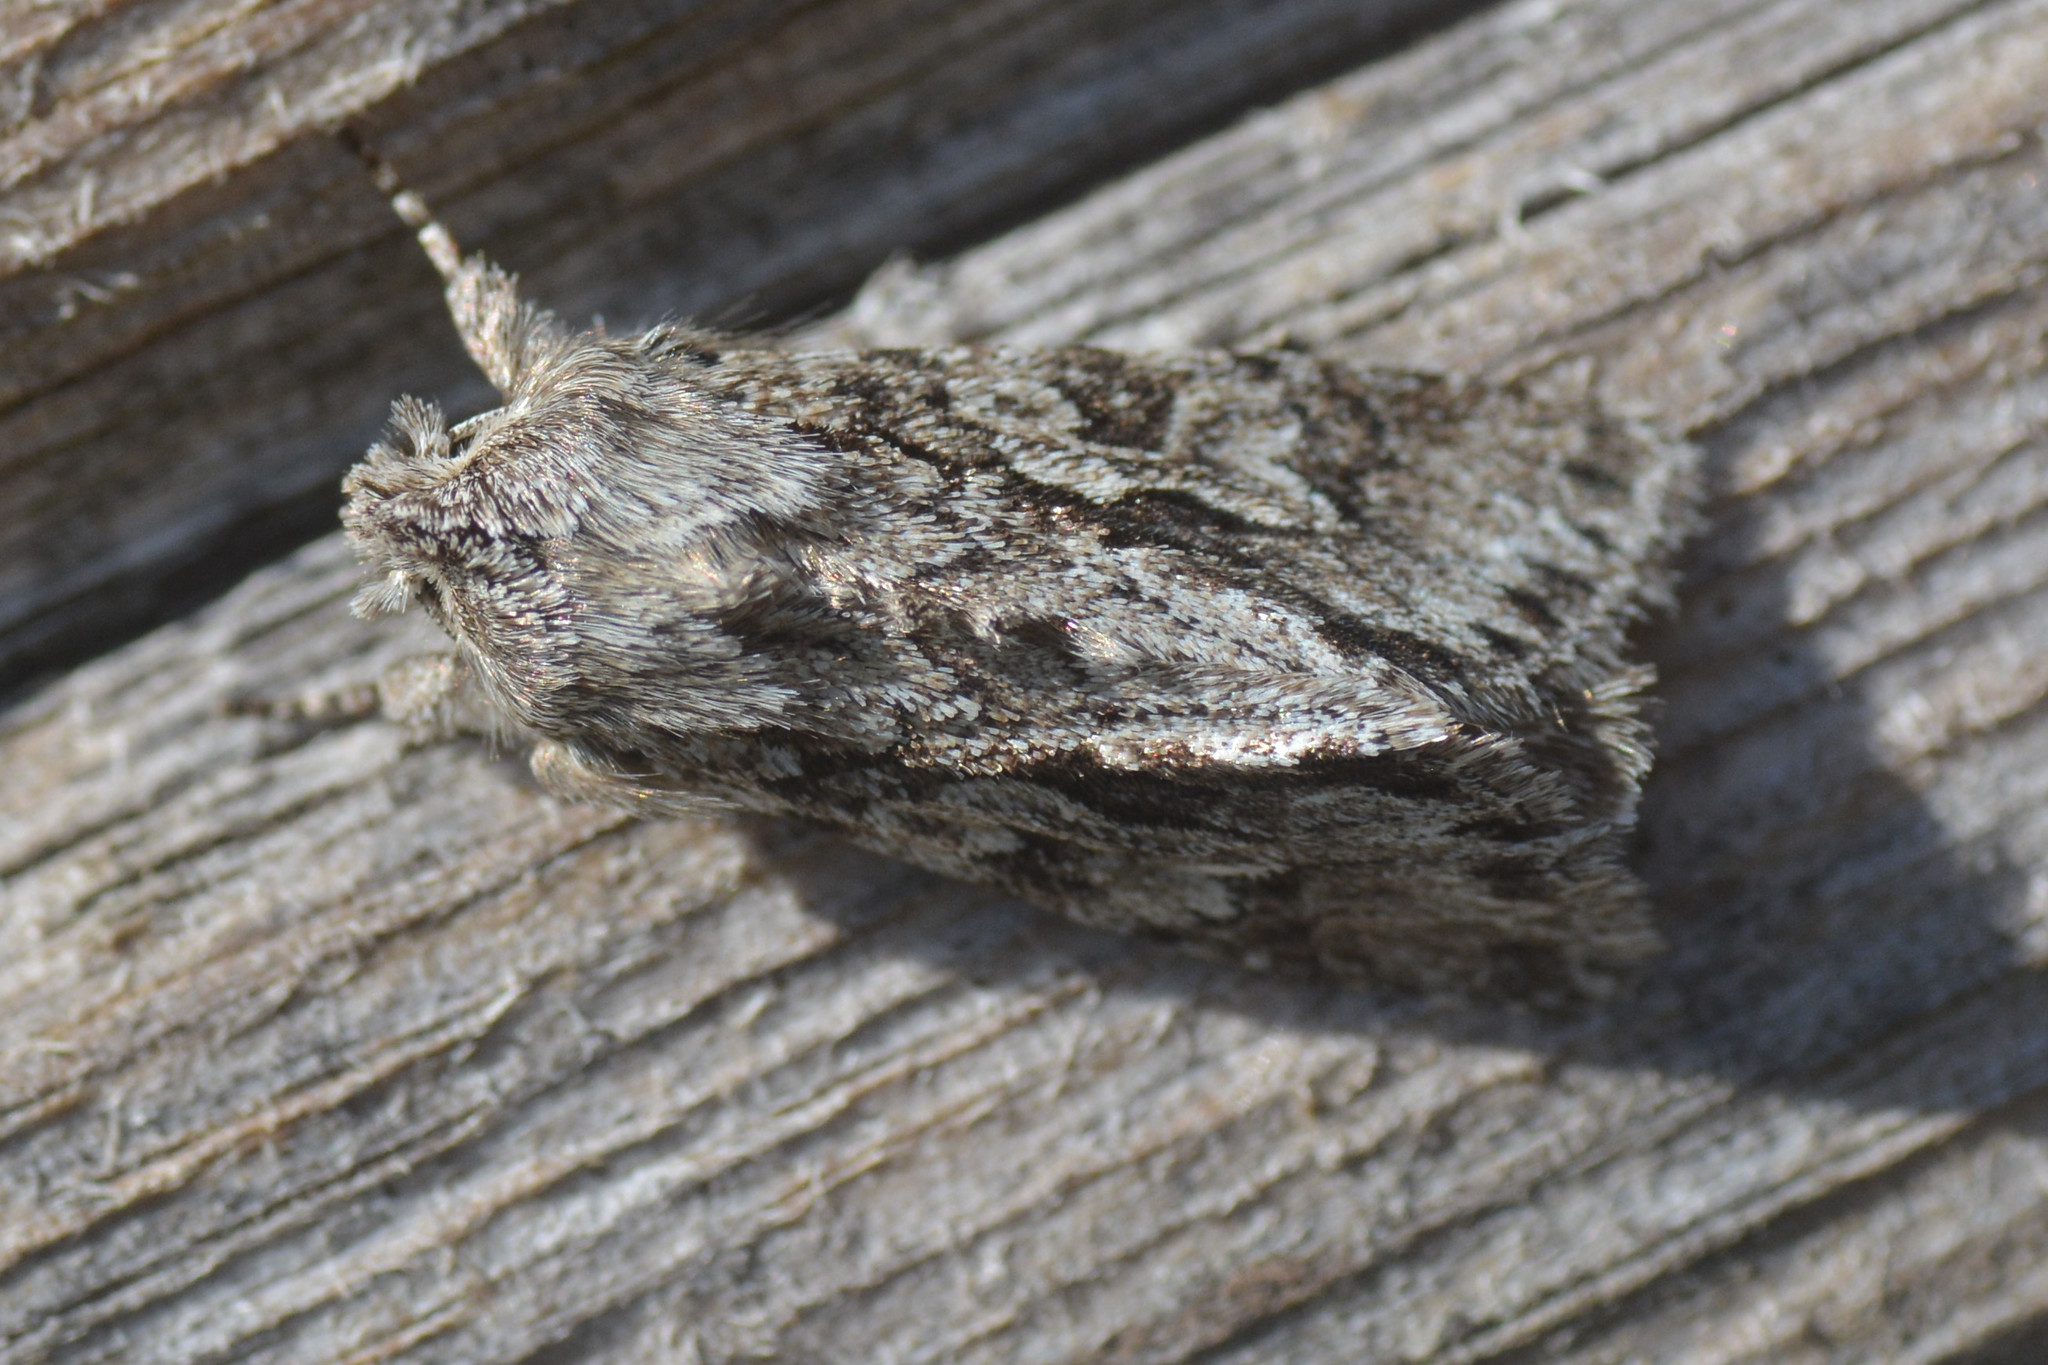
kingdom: Animalia
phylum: Arthropoda
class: Insecta
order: Lepidoptera
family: Noctuidae
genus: Xylocampa
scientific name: Xylocampa areola
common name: Early grey
